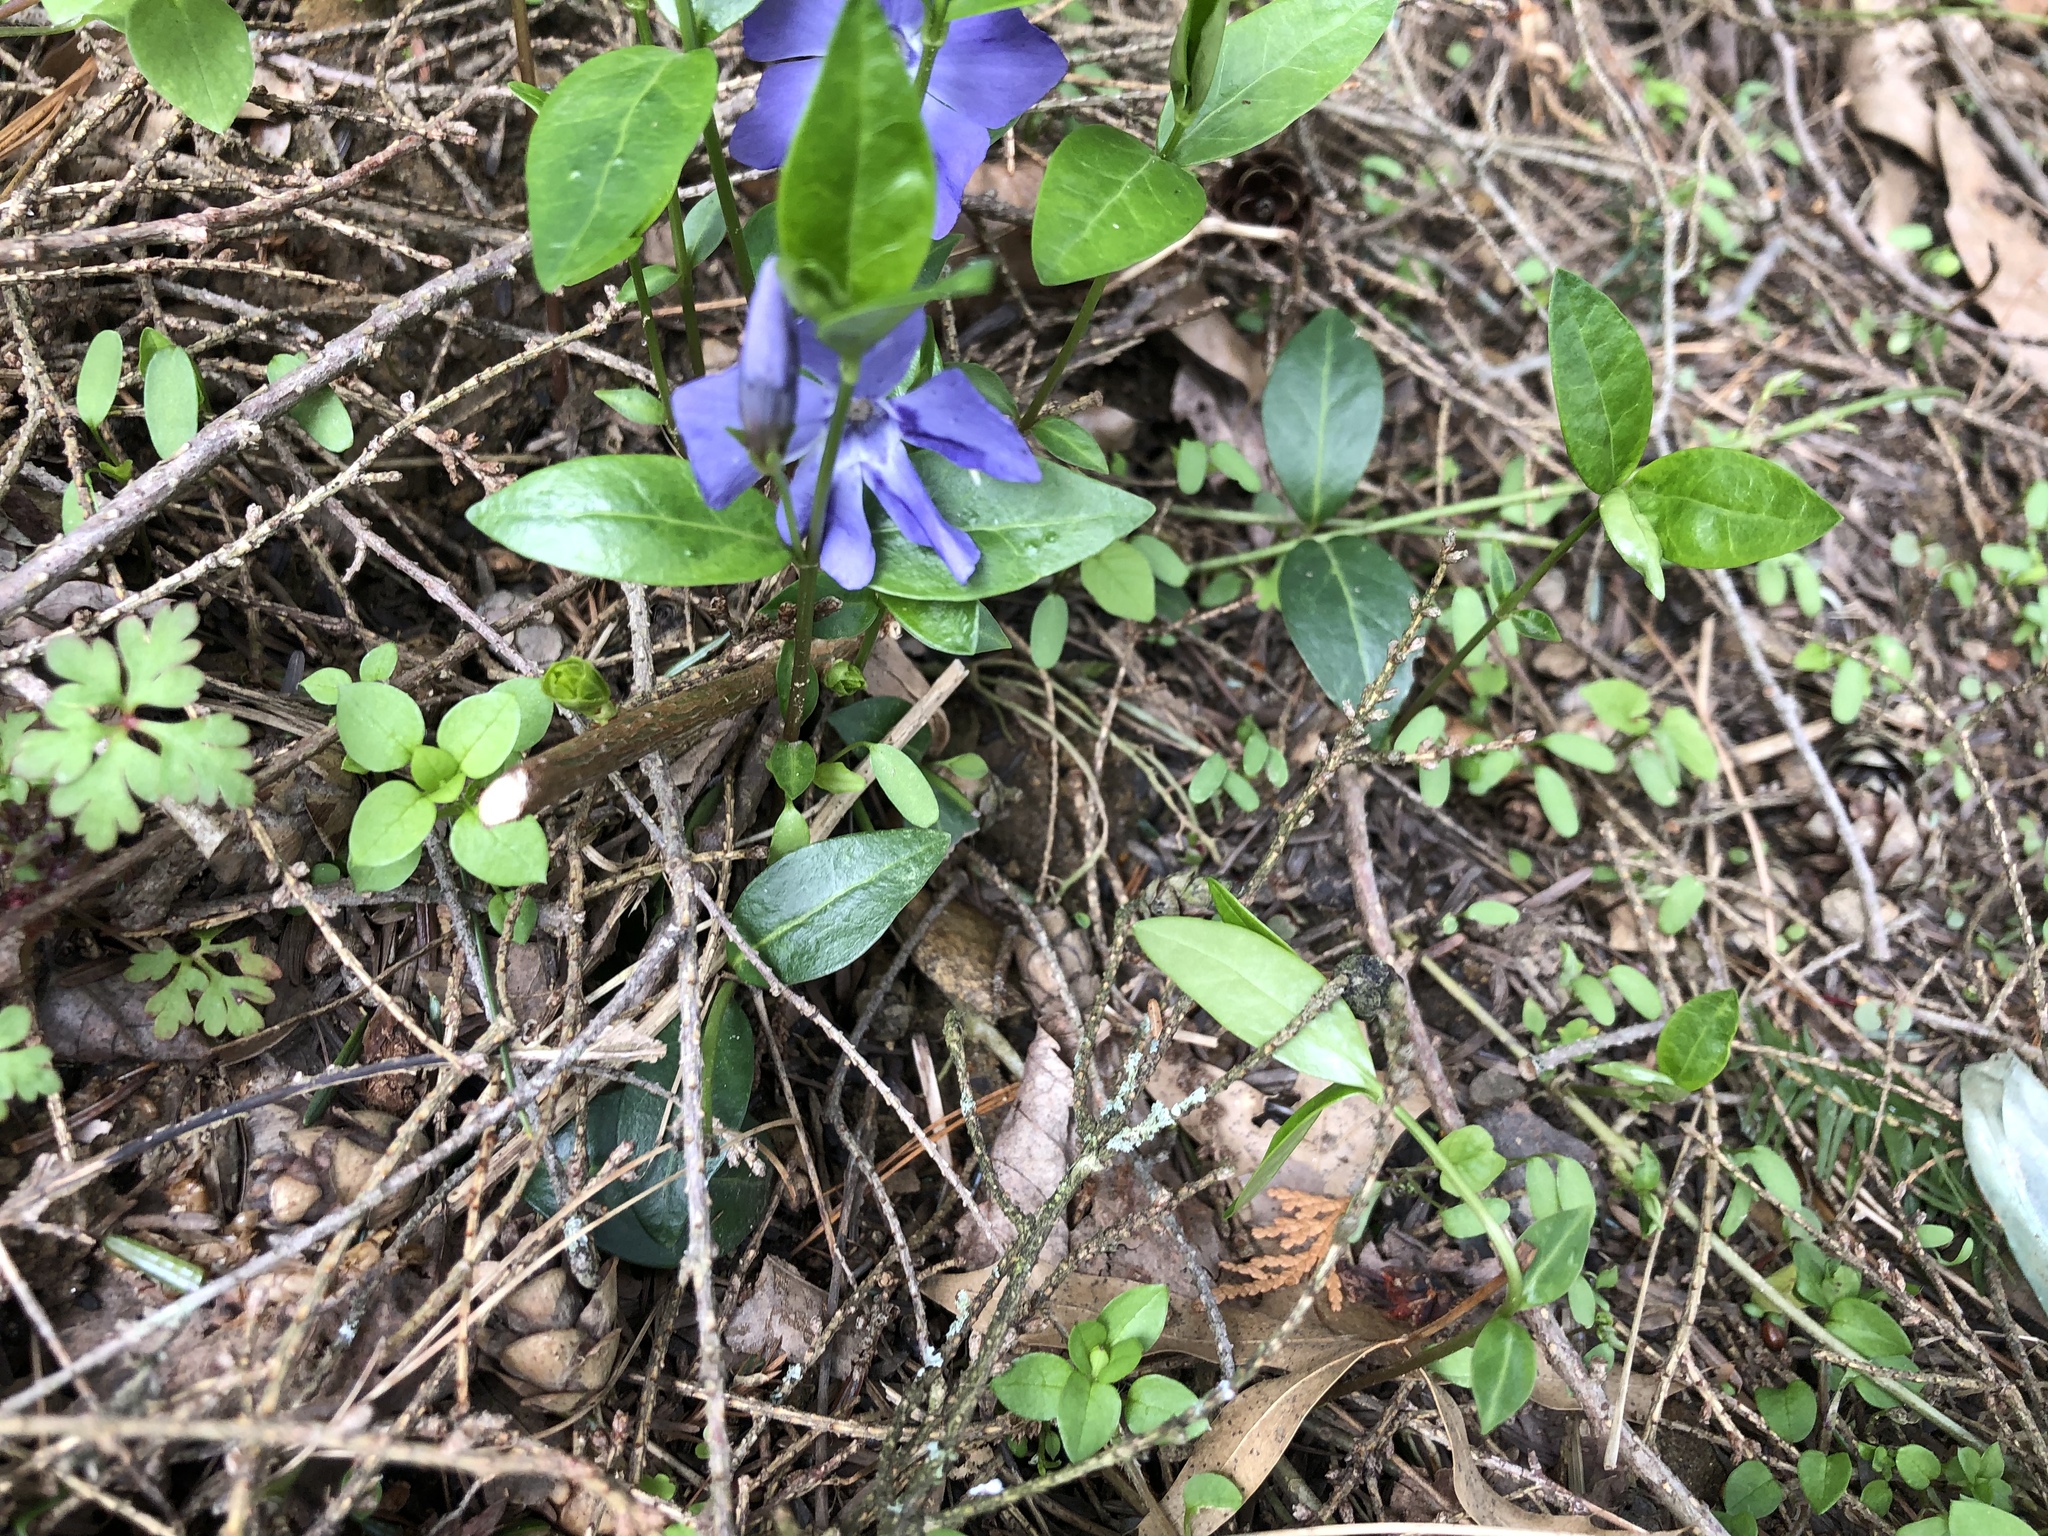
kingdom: Plantae
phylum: Tracheophyta
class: Magnoliopsida
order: Gentianales
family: Apocynaceae
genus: Vinca
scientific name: Vinca minor
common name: Lesser periwinkle
